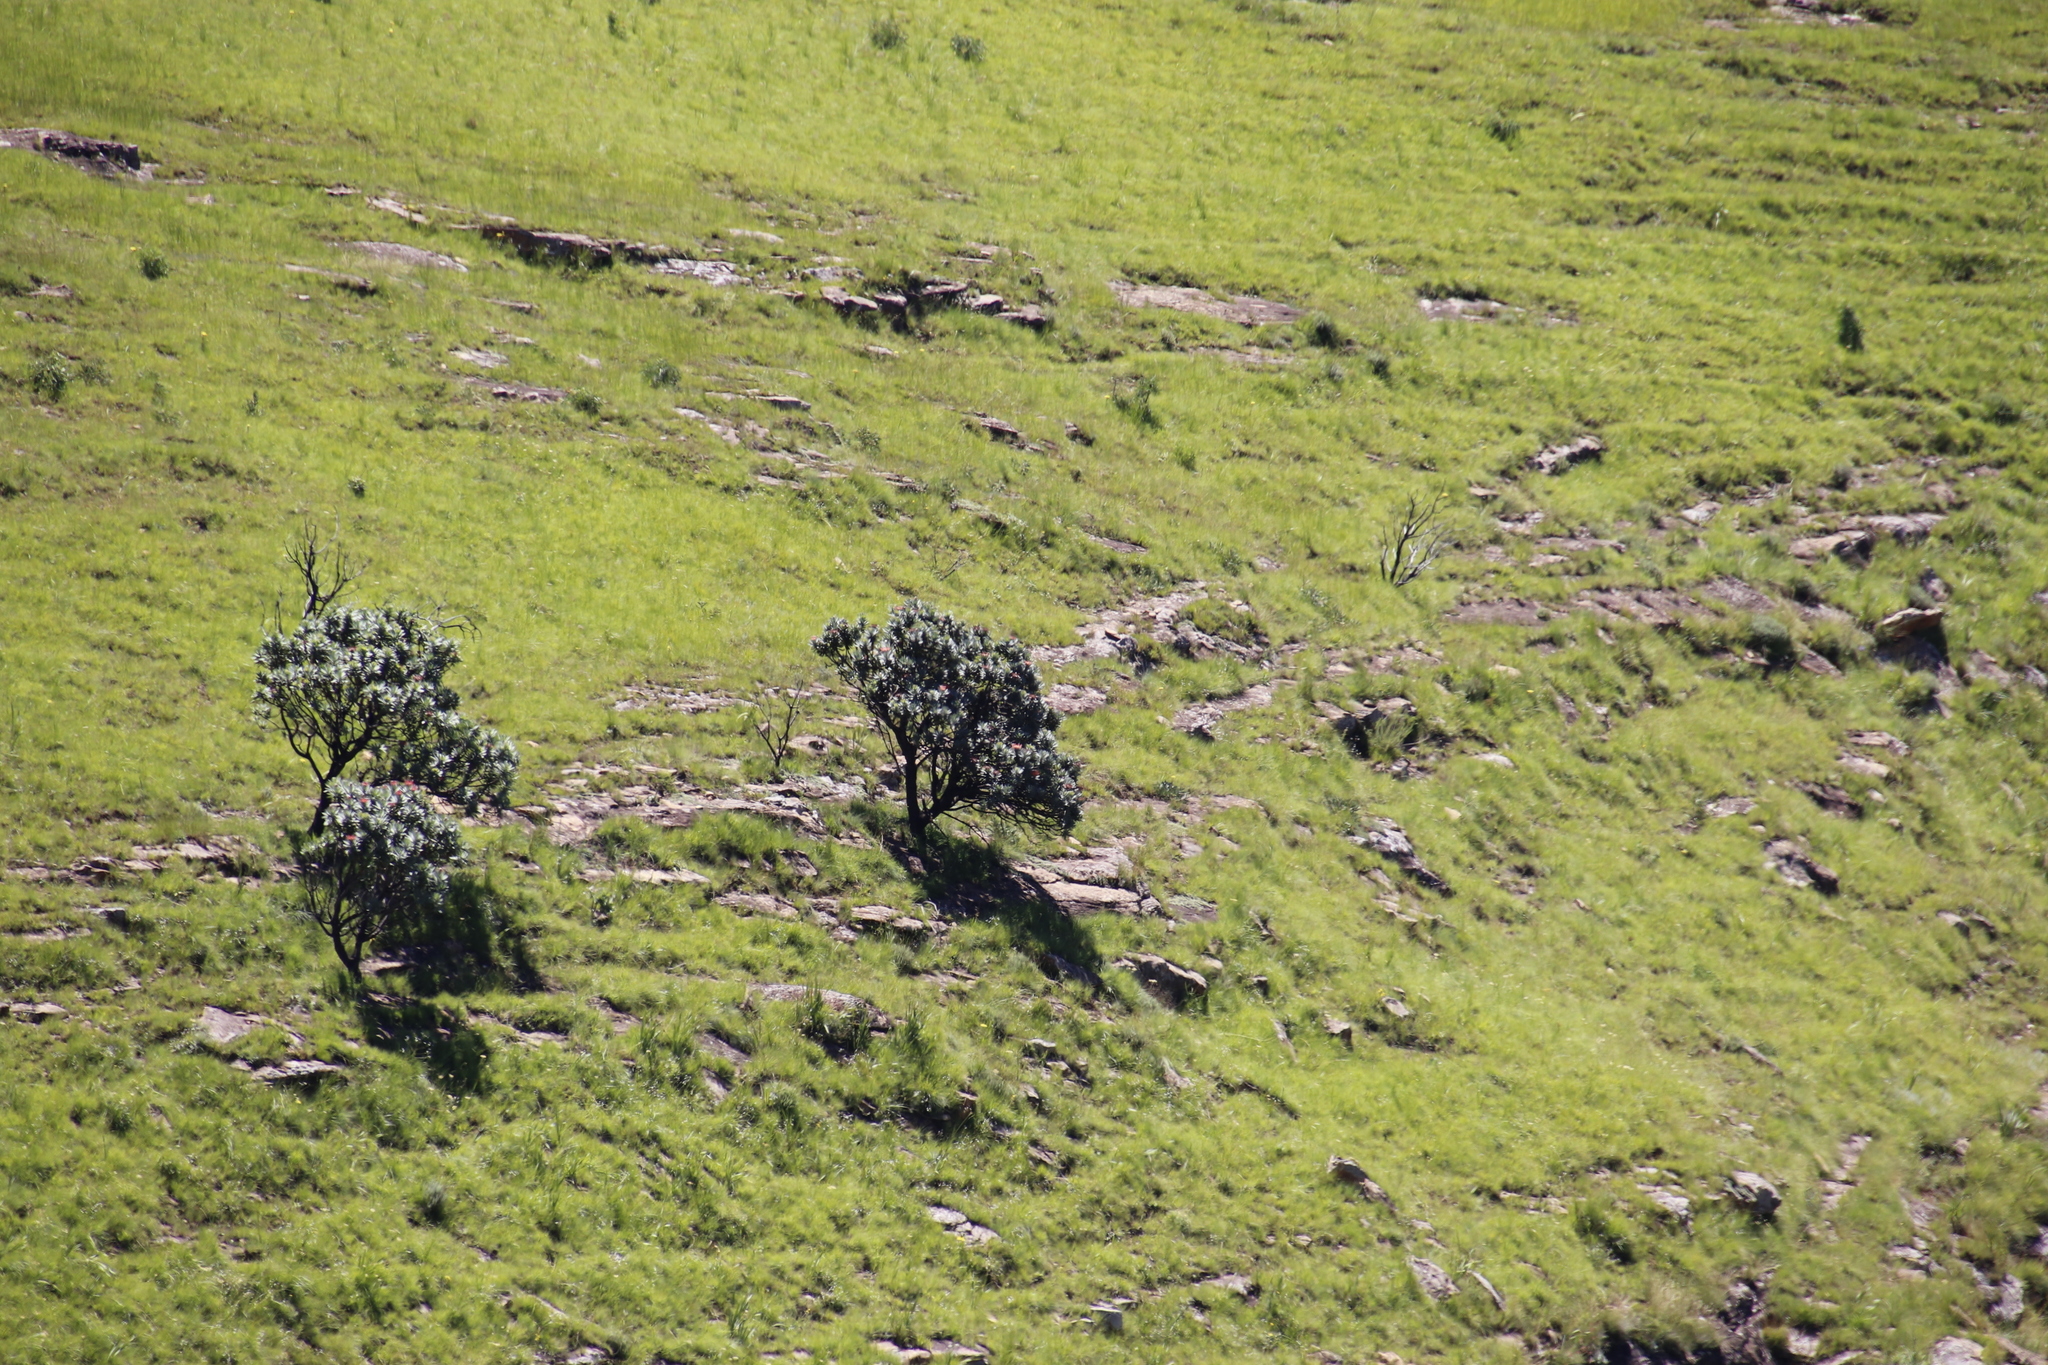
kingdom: Plantae
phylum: Tracheophyta
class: Magnoliopsida
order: Proteales
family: Proteaceae
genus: Protea
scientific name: Protea roupelliae
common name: Silver sugarbush
